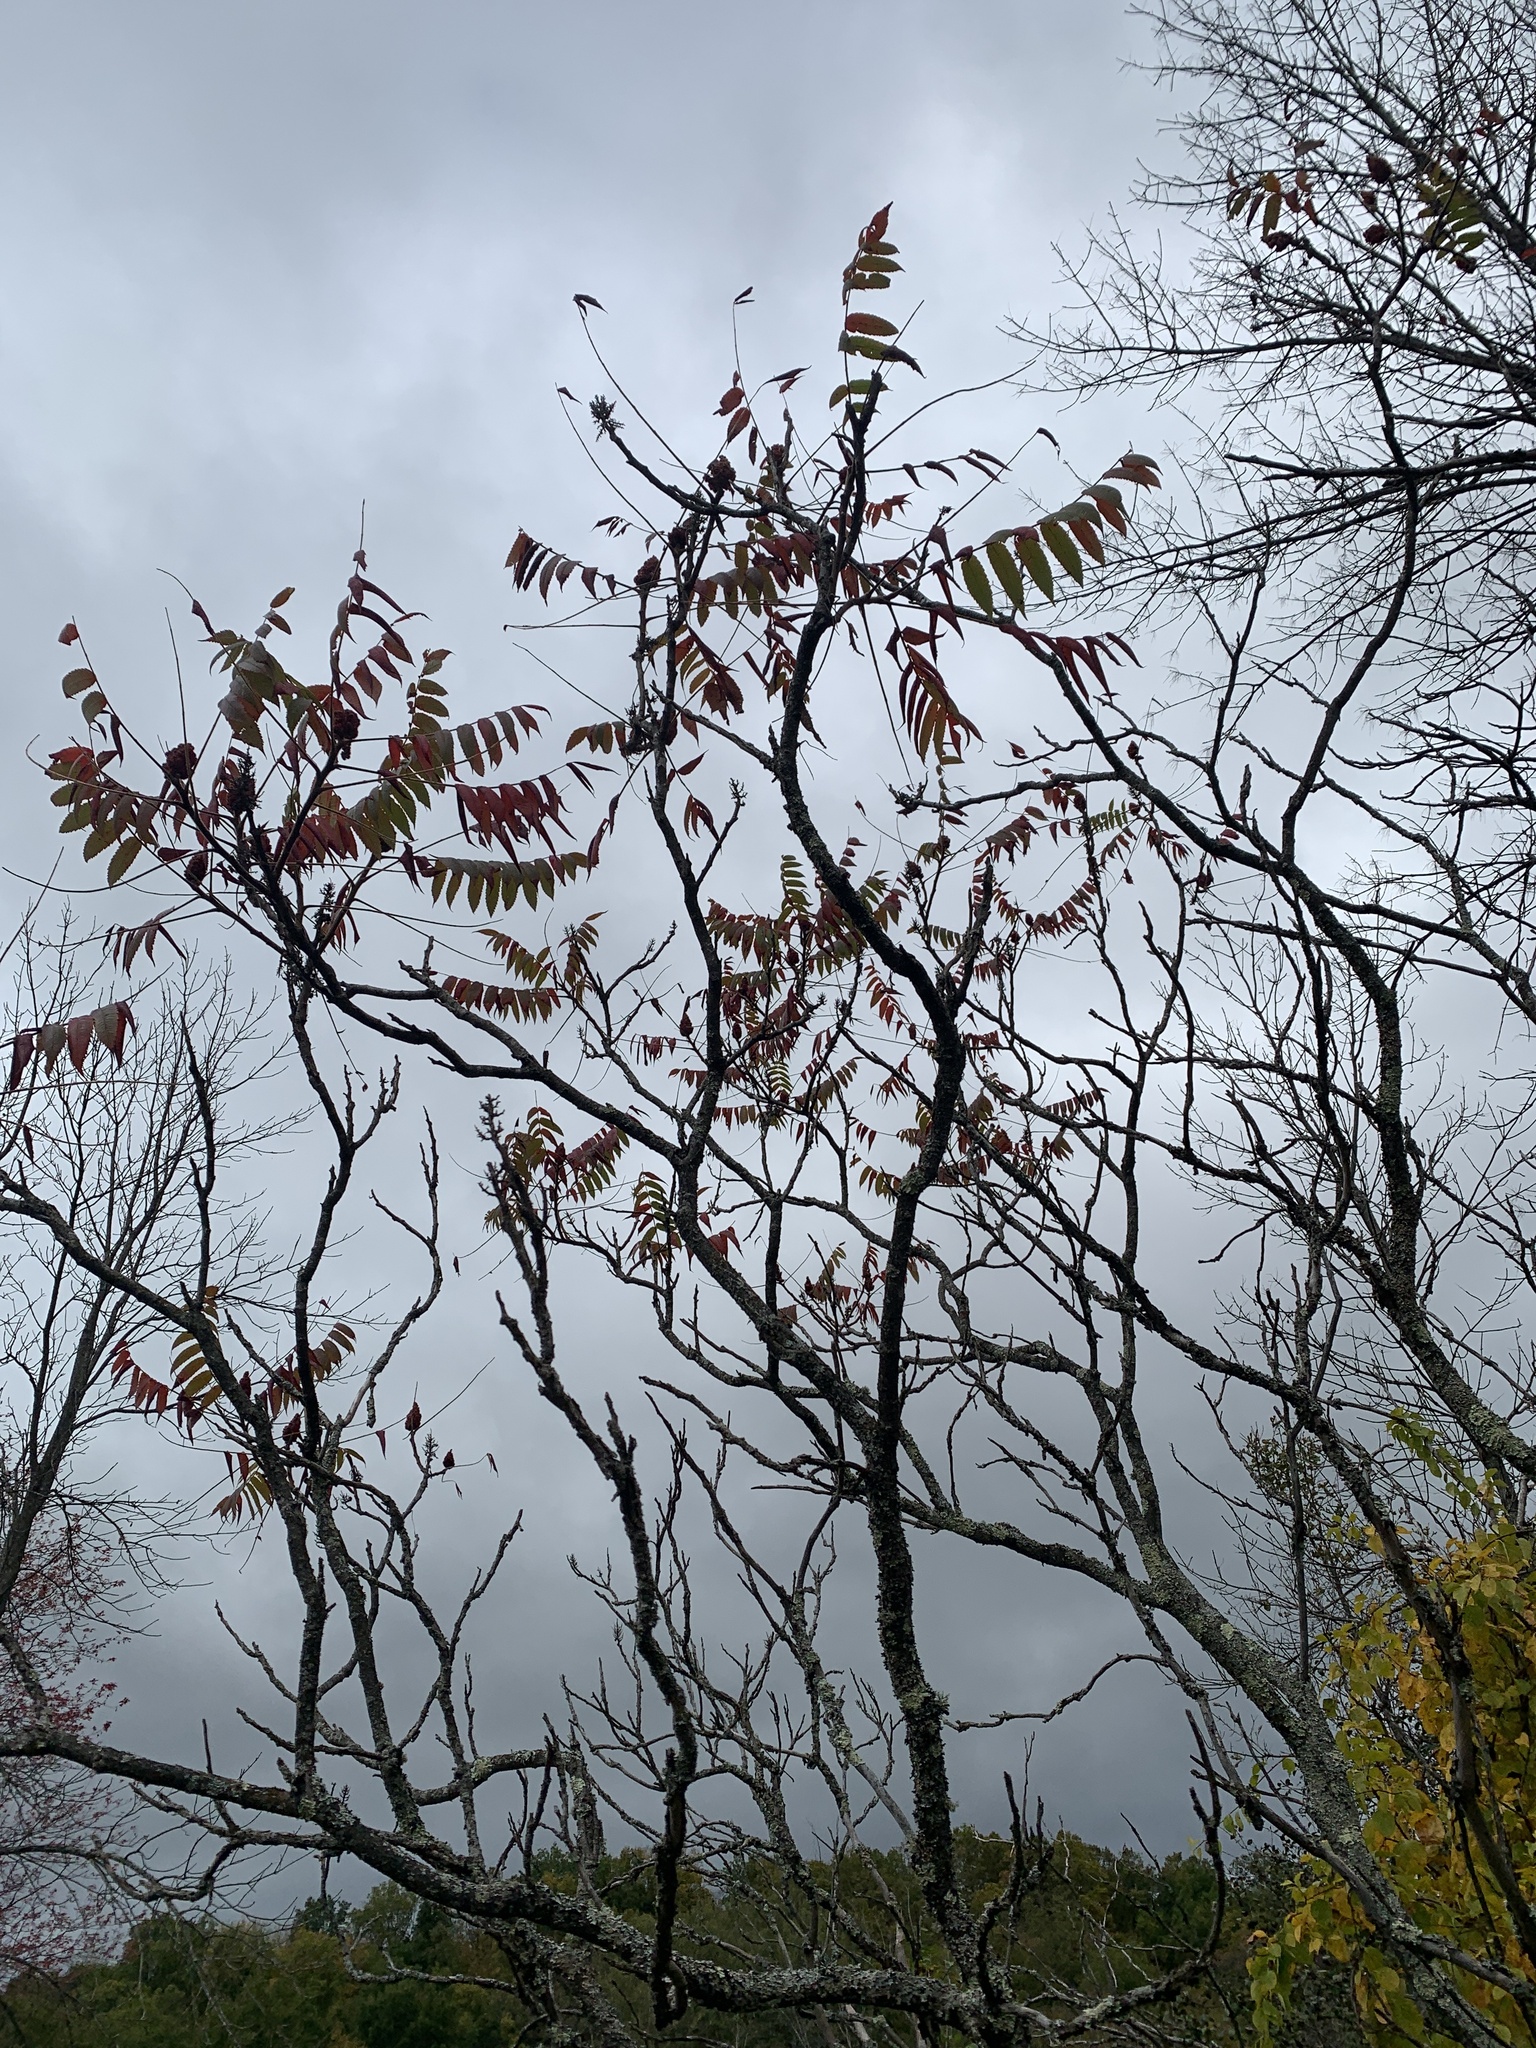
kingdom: Plantae
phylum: Tracheophyta
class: Magnoliopsida
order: Sapindales
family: Anacardiaceae
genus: Rhus
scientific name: Rhus typhina
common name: Staghorn sumac
